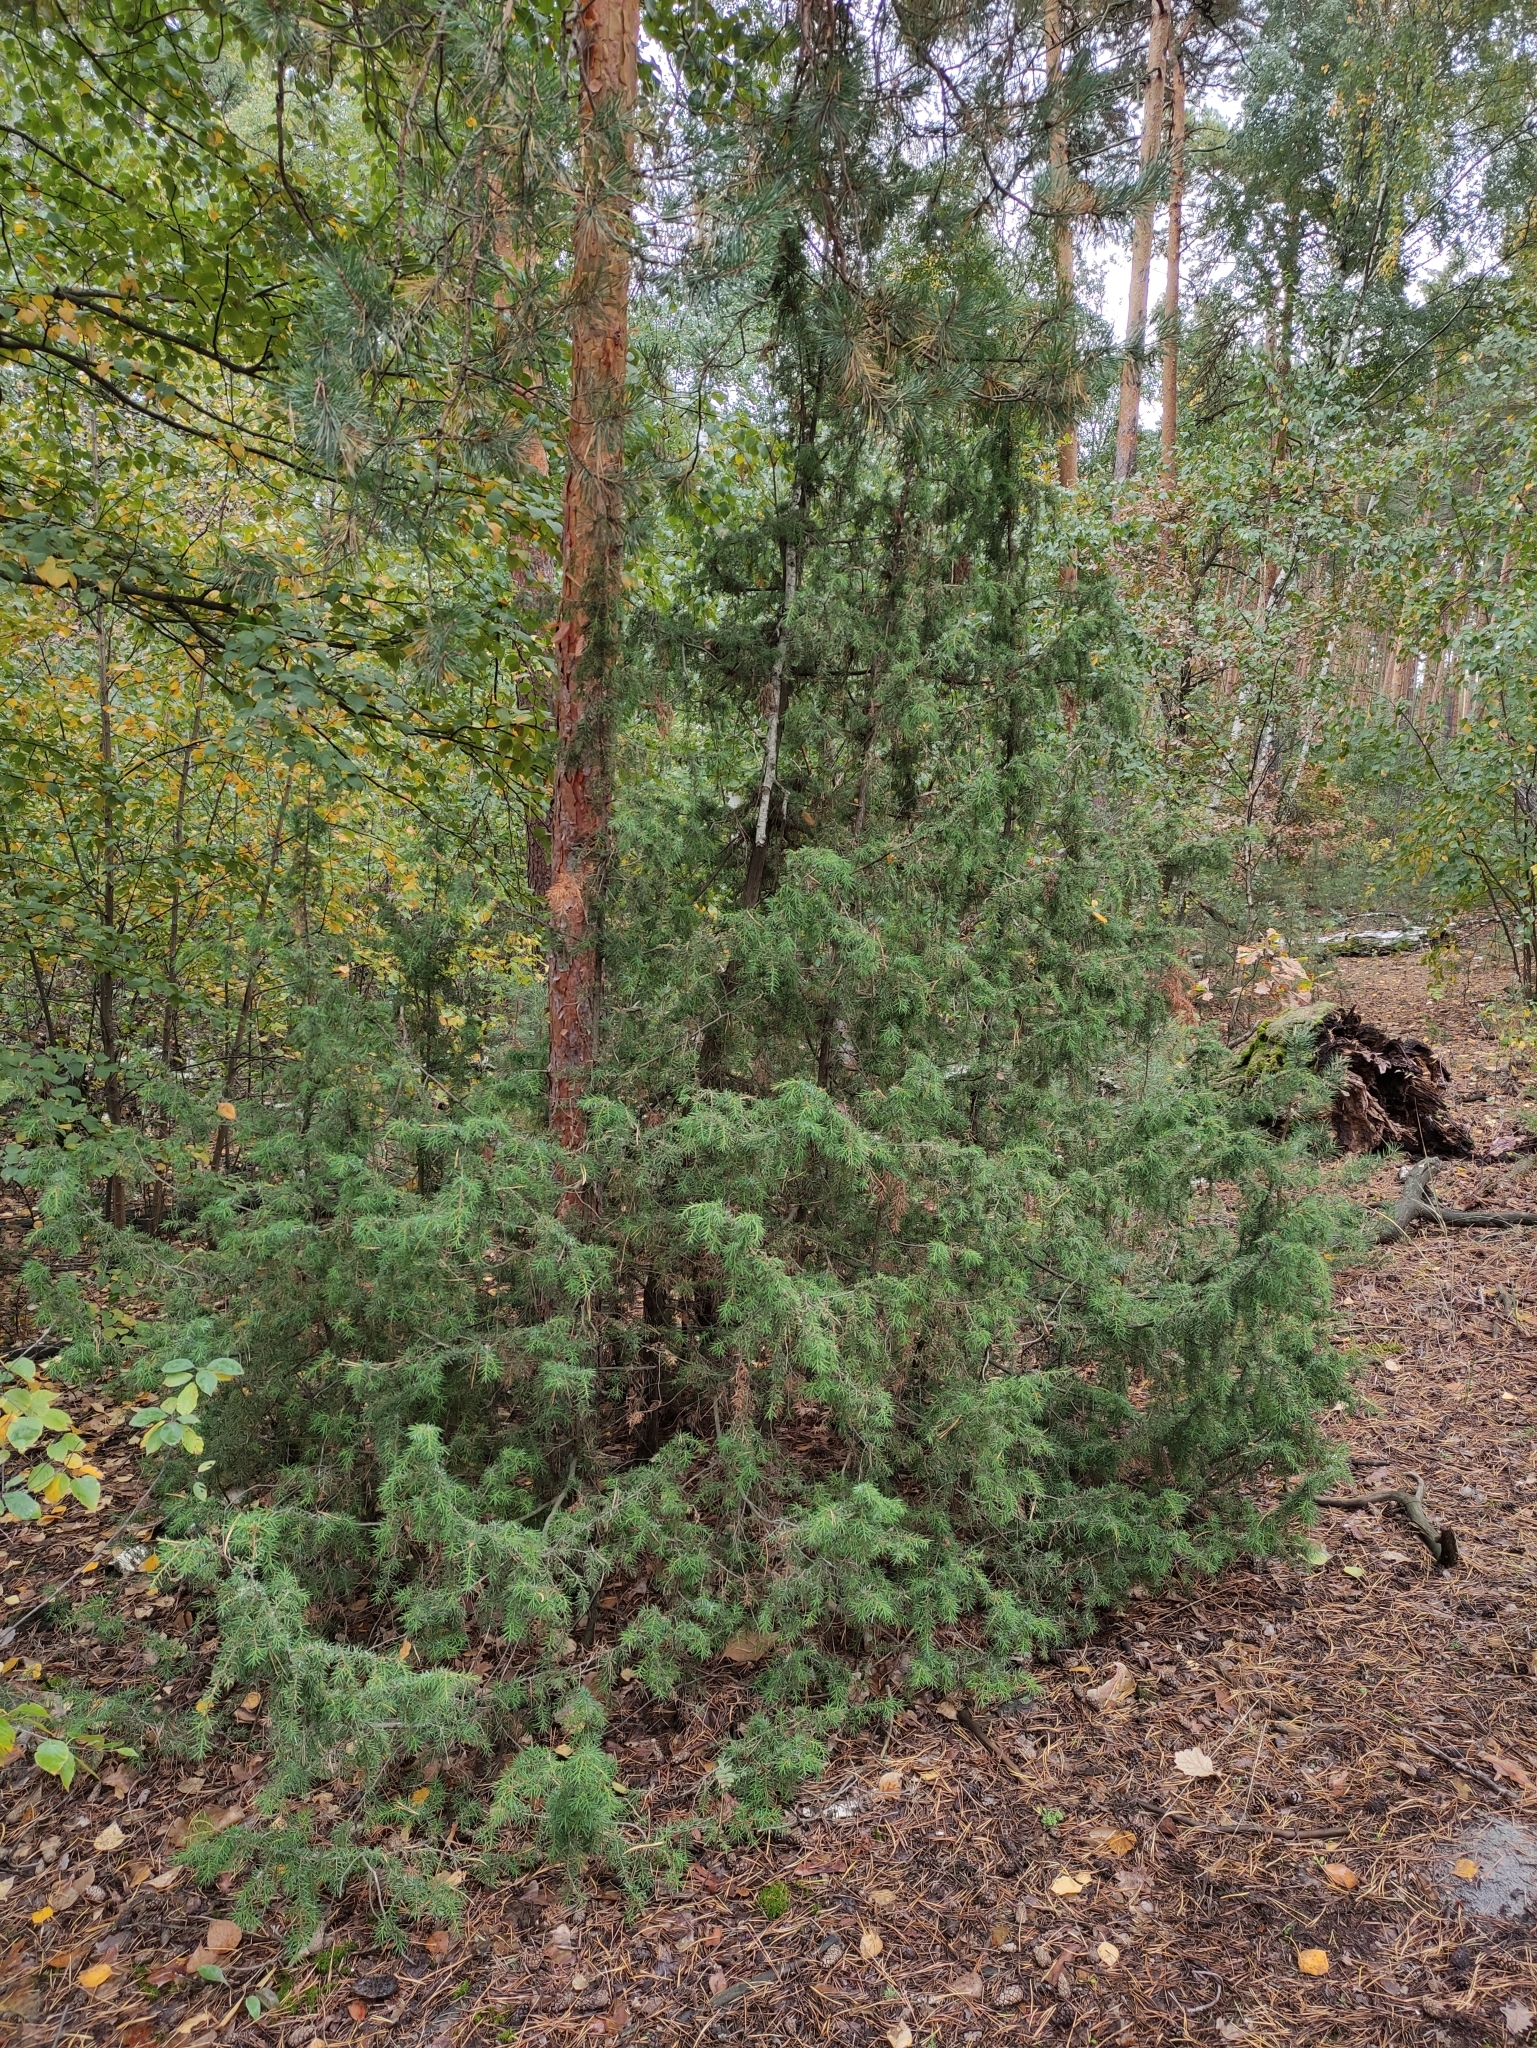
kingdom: Plantae
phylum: Tracheophyta
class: Pinopsida
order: Pinales
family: Cupressaceae
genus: Juniperus
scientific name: Juniperus communis
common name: Common juniper
